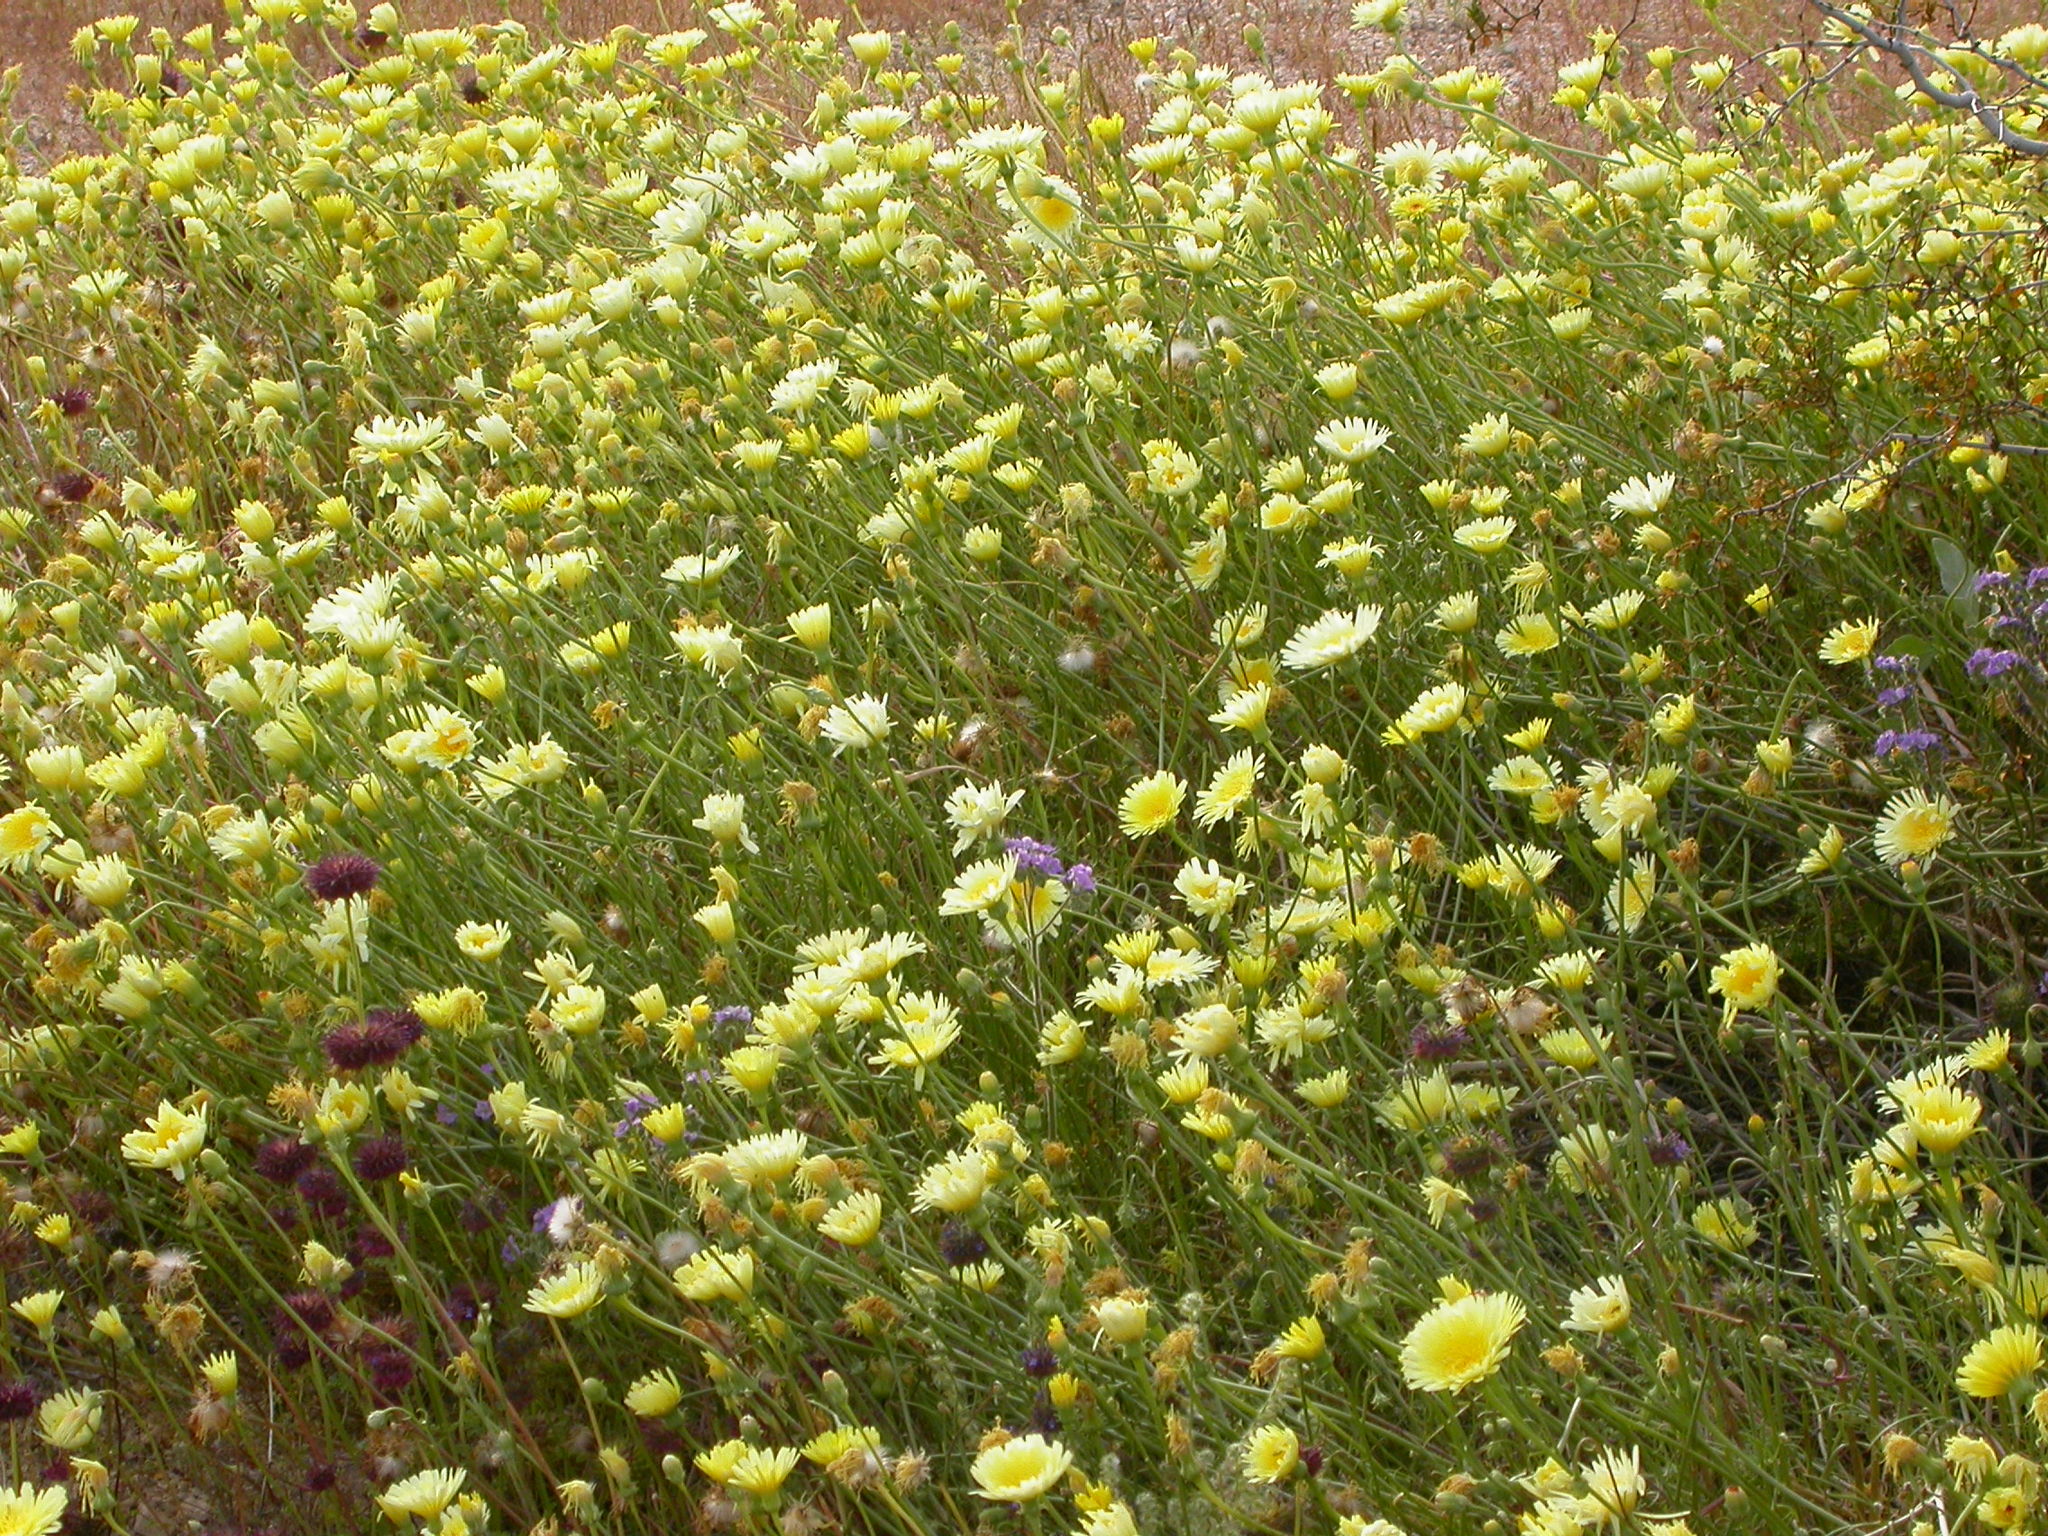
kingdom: Plantae
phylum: Tracheophyta
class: Magnoliopsida
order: Asterales
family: Asteraceae
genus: Malacothrix
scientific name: Malacothrix glabrata
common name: Smooth desert-dandelion
